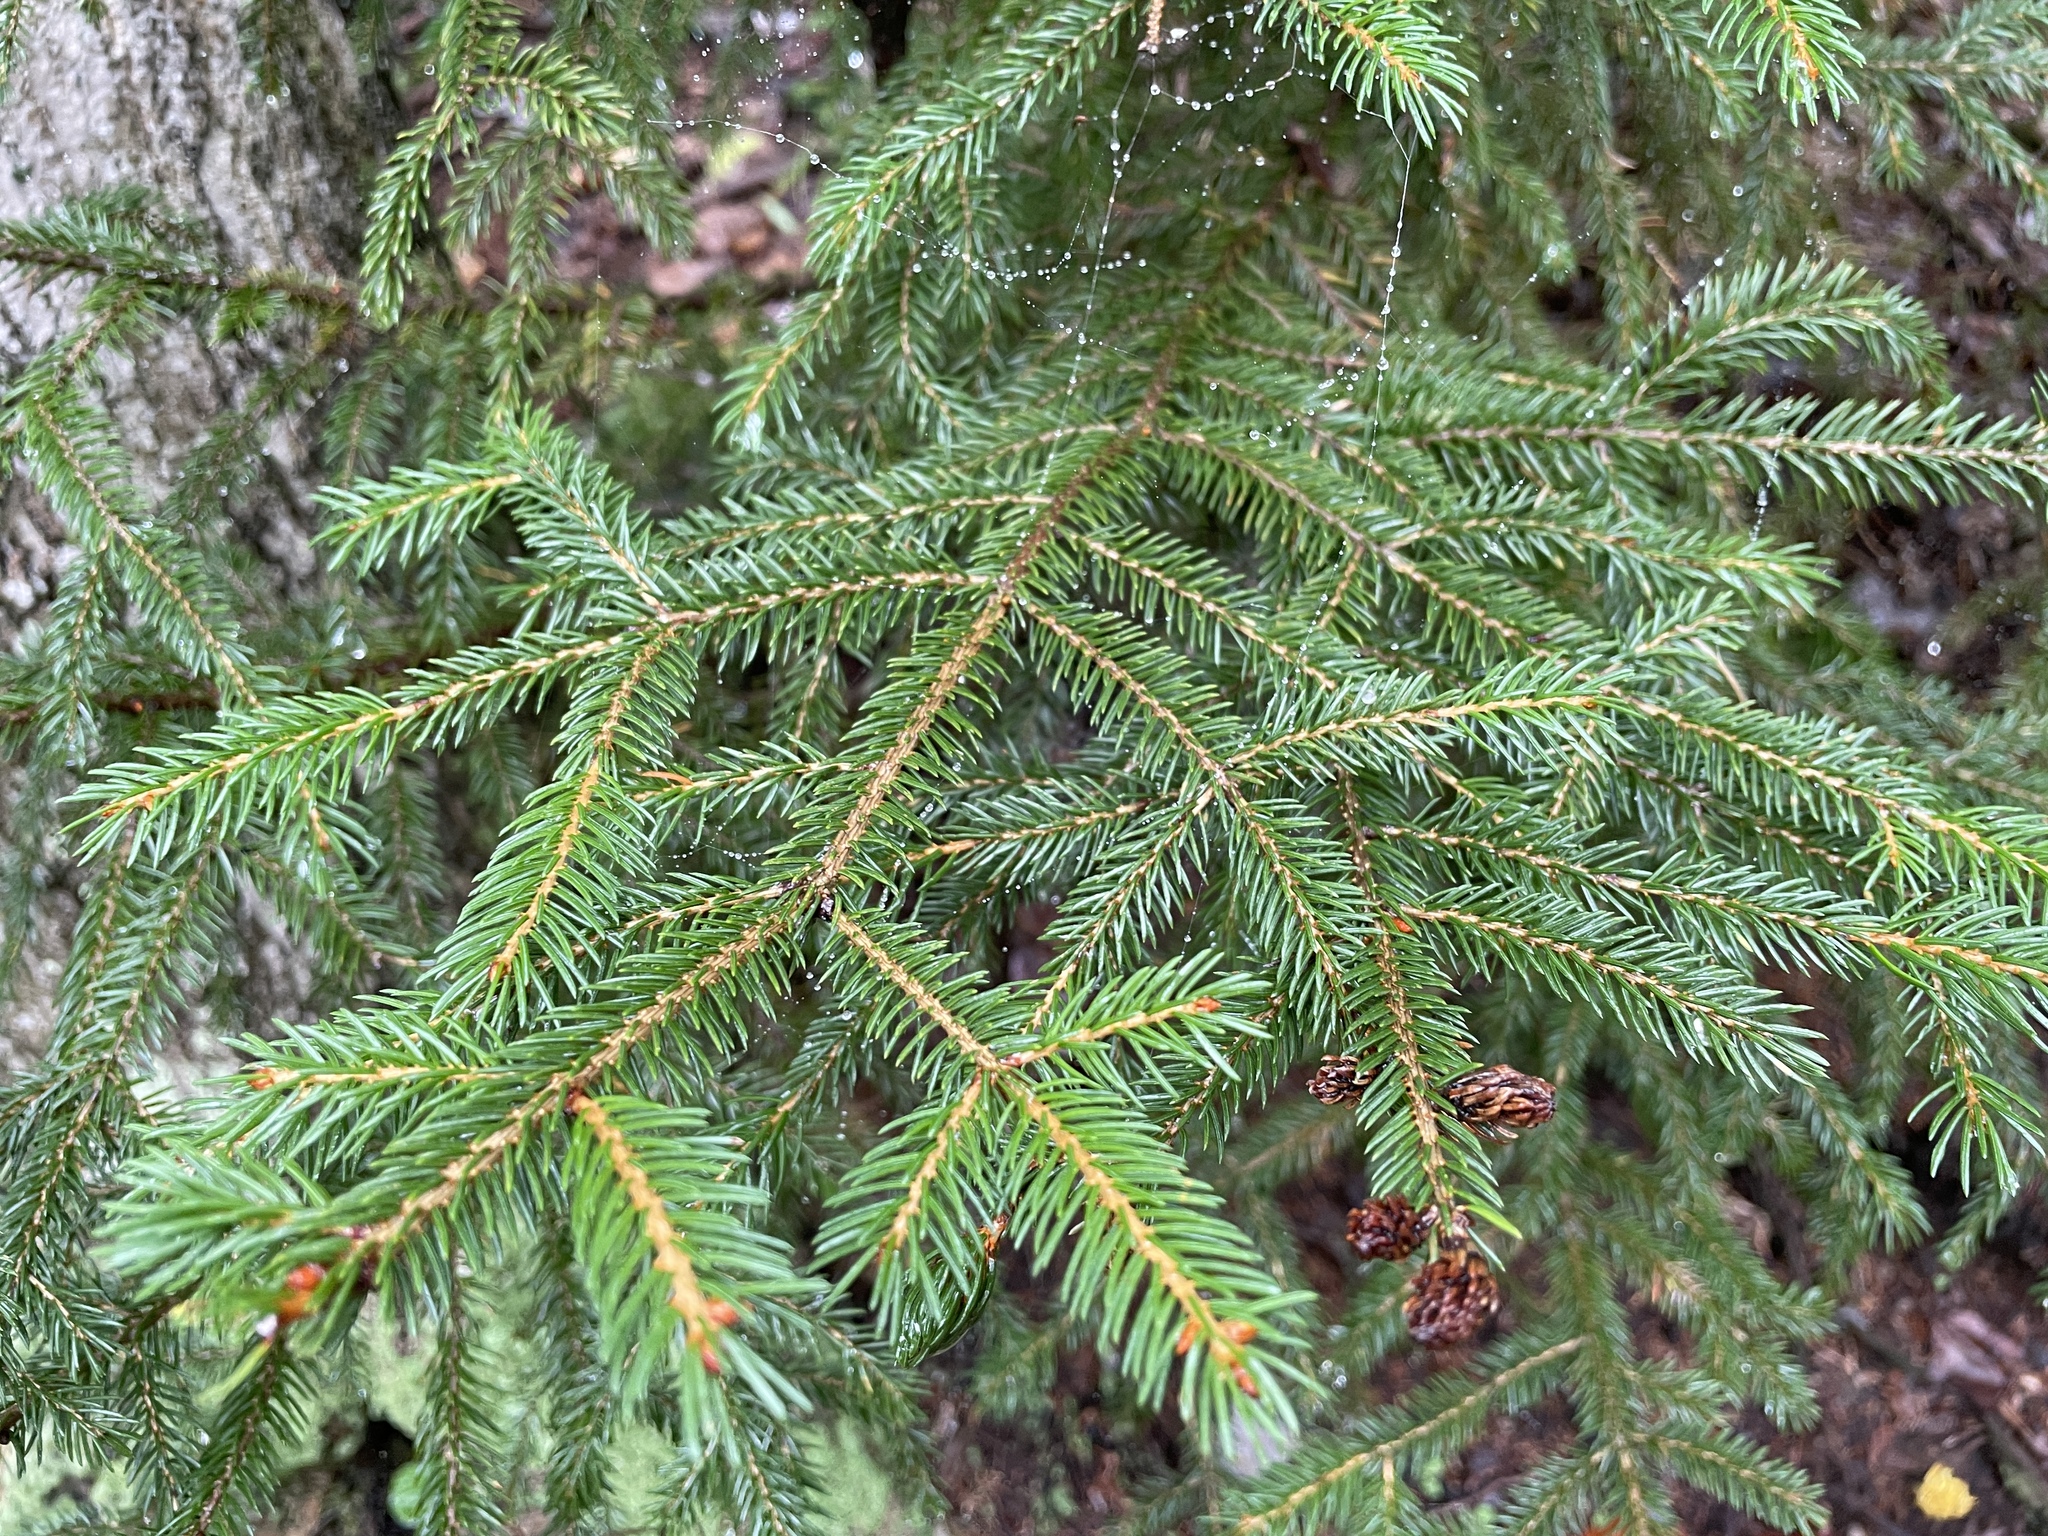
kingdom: Plantae
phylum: Tracheophyta
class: Pinopsida
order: Pinales
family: Pinaceae
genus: Picea
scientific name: Picea rubens
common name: Red spruce
